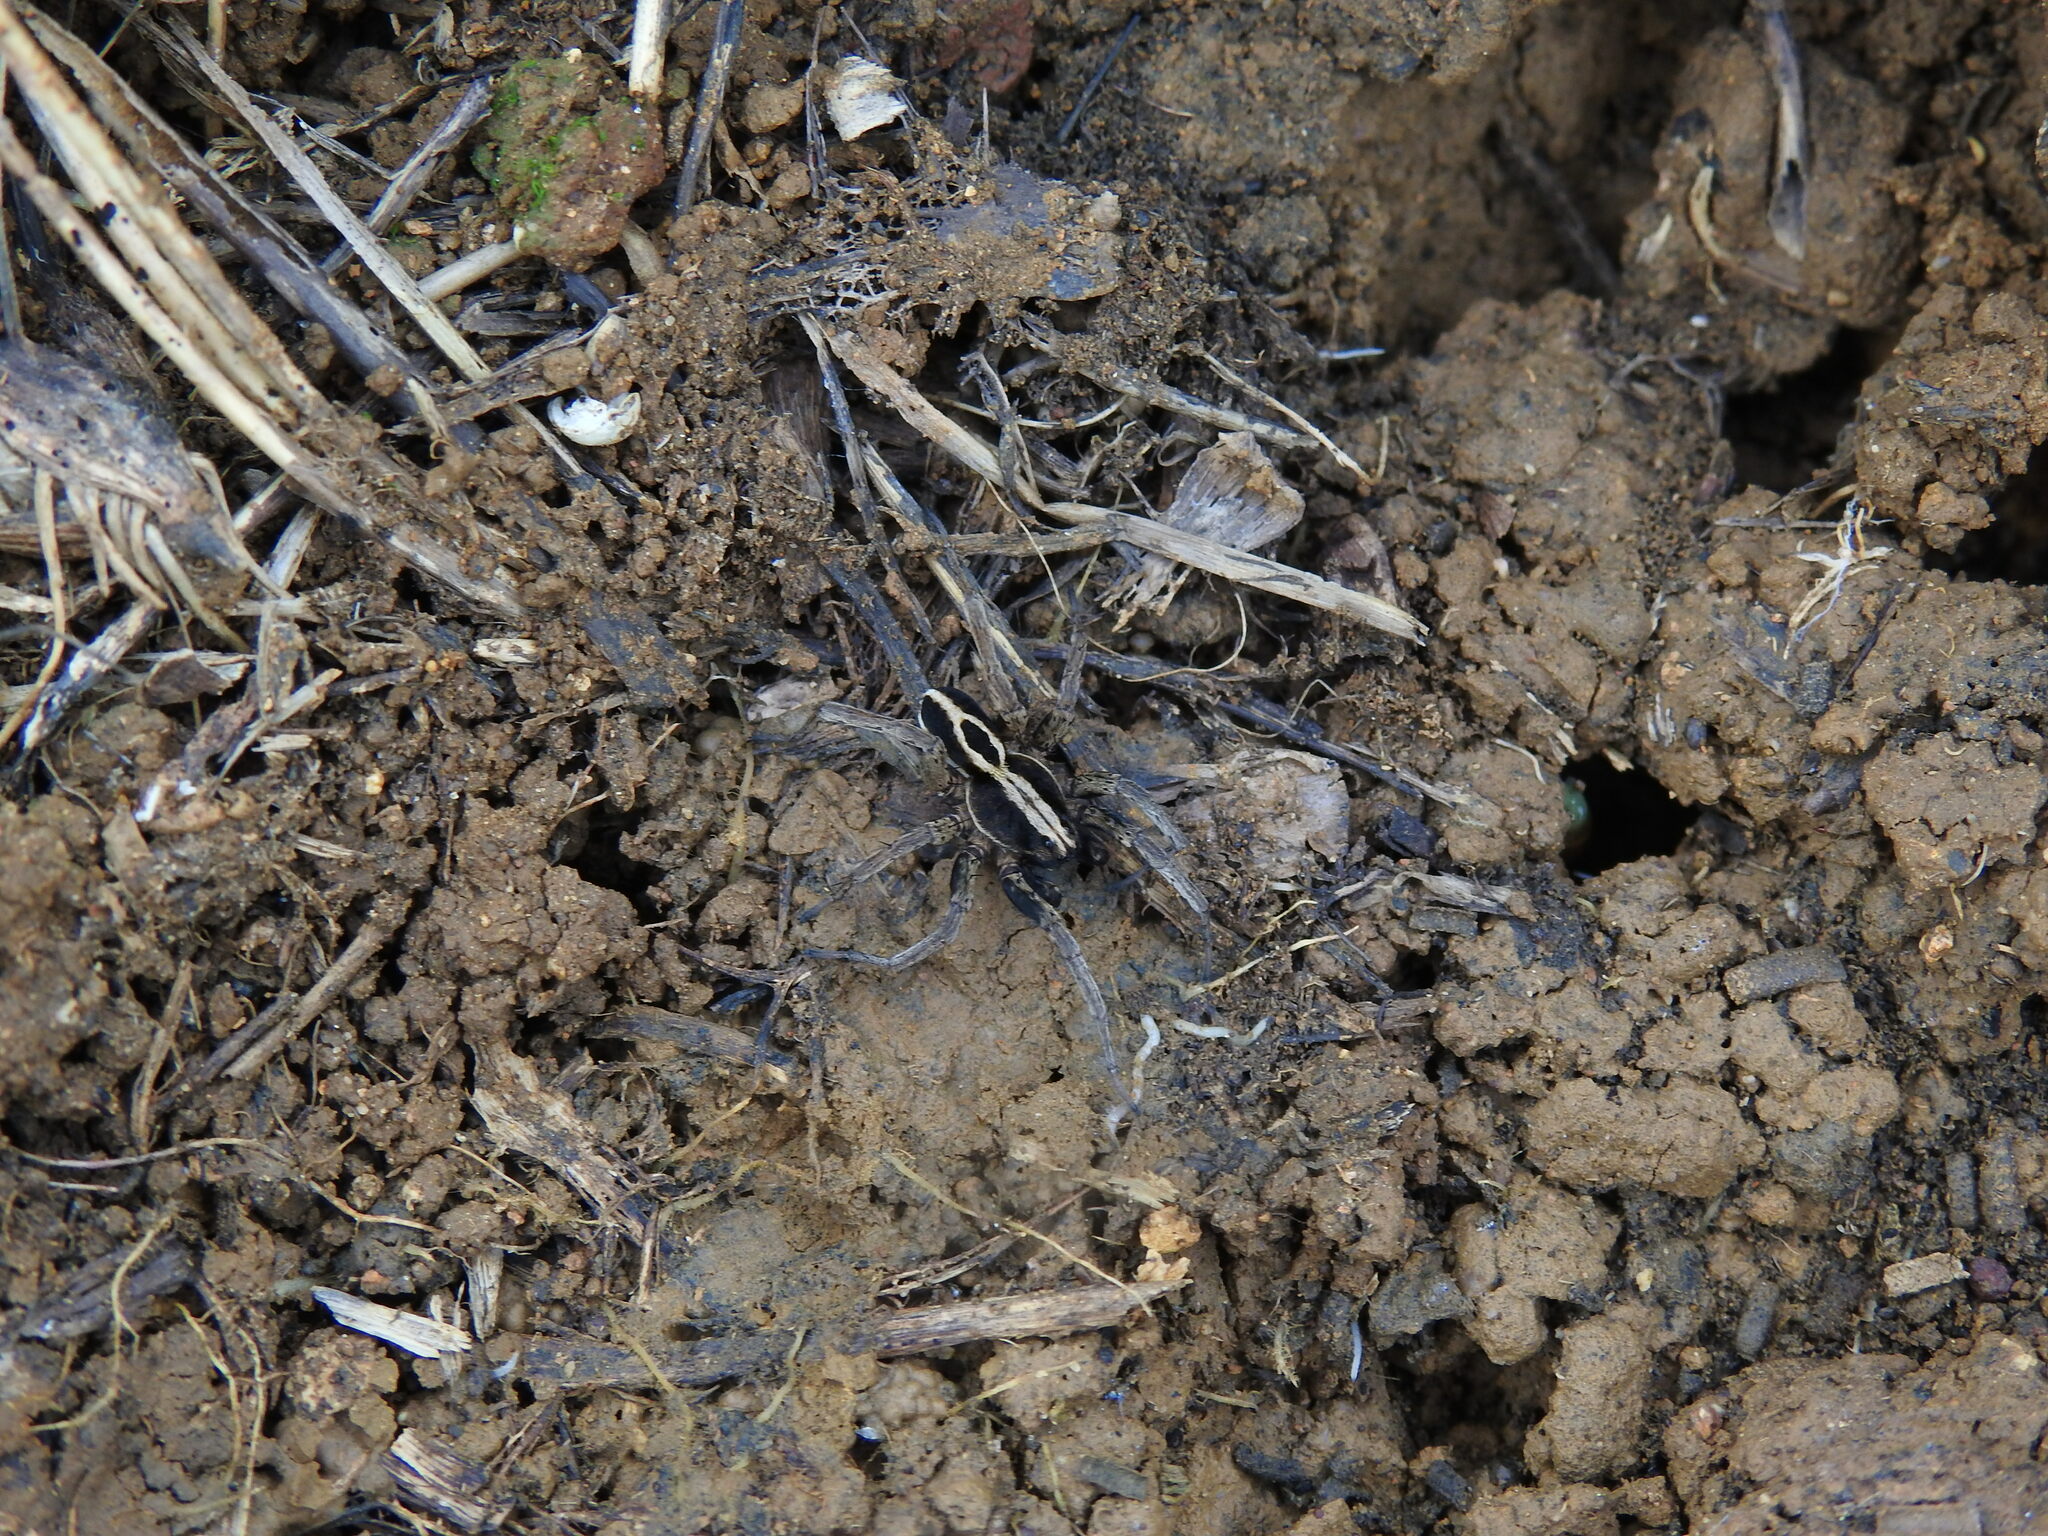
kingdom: Animalia
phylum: Arthropoda
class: Arachnida
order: Araneae
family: Lycosidae
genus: Alopecosa
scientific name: Alopecosa albofasciata
